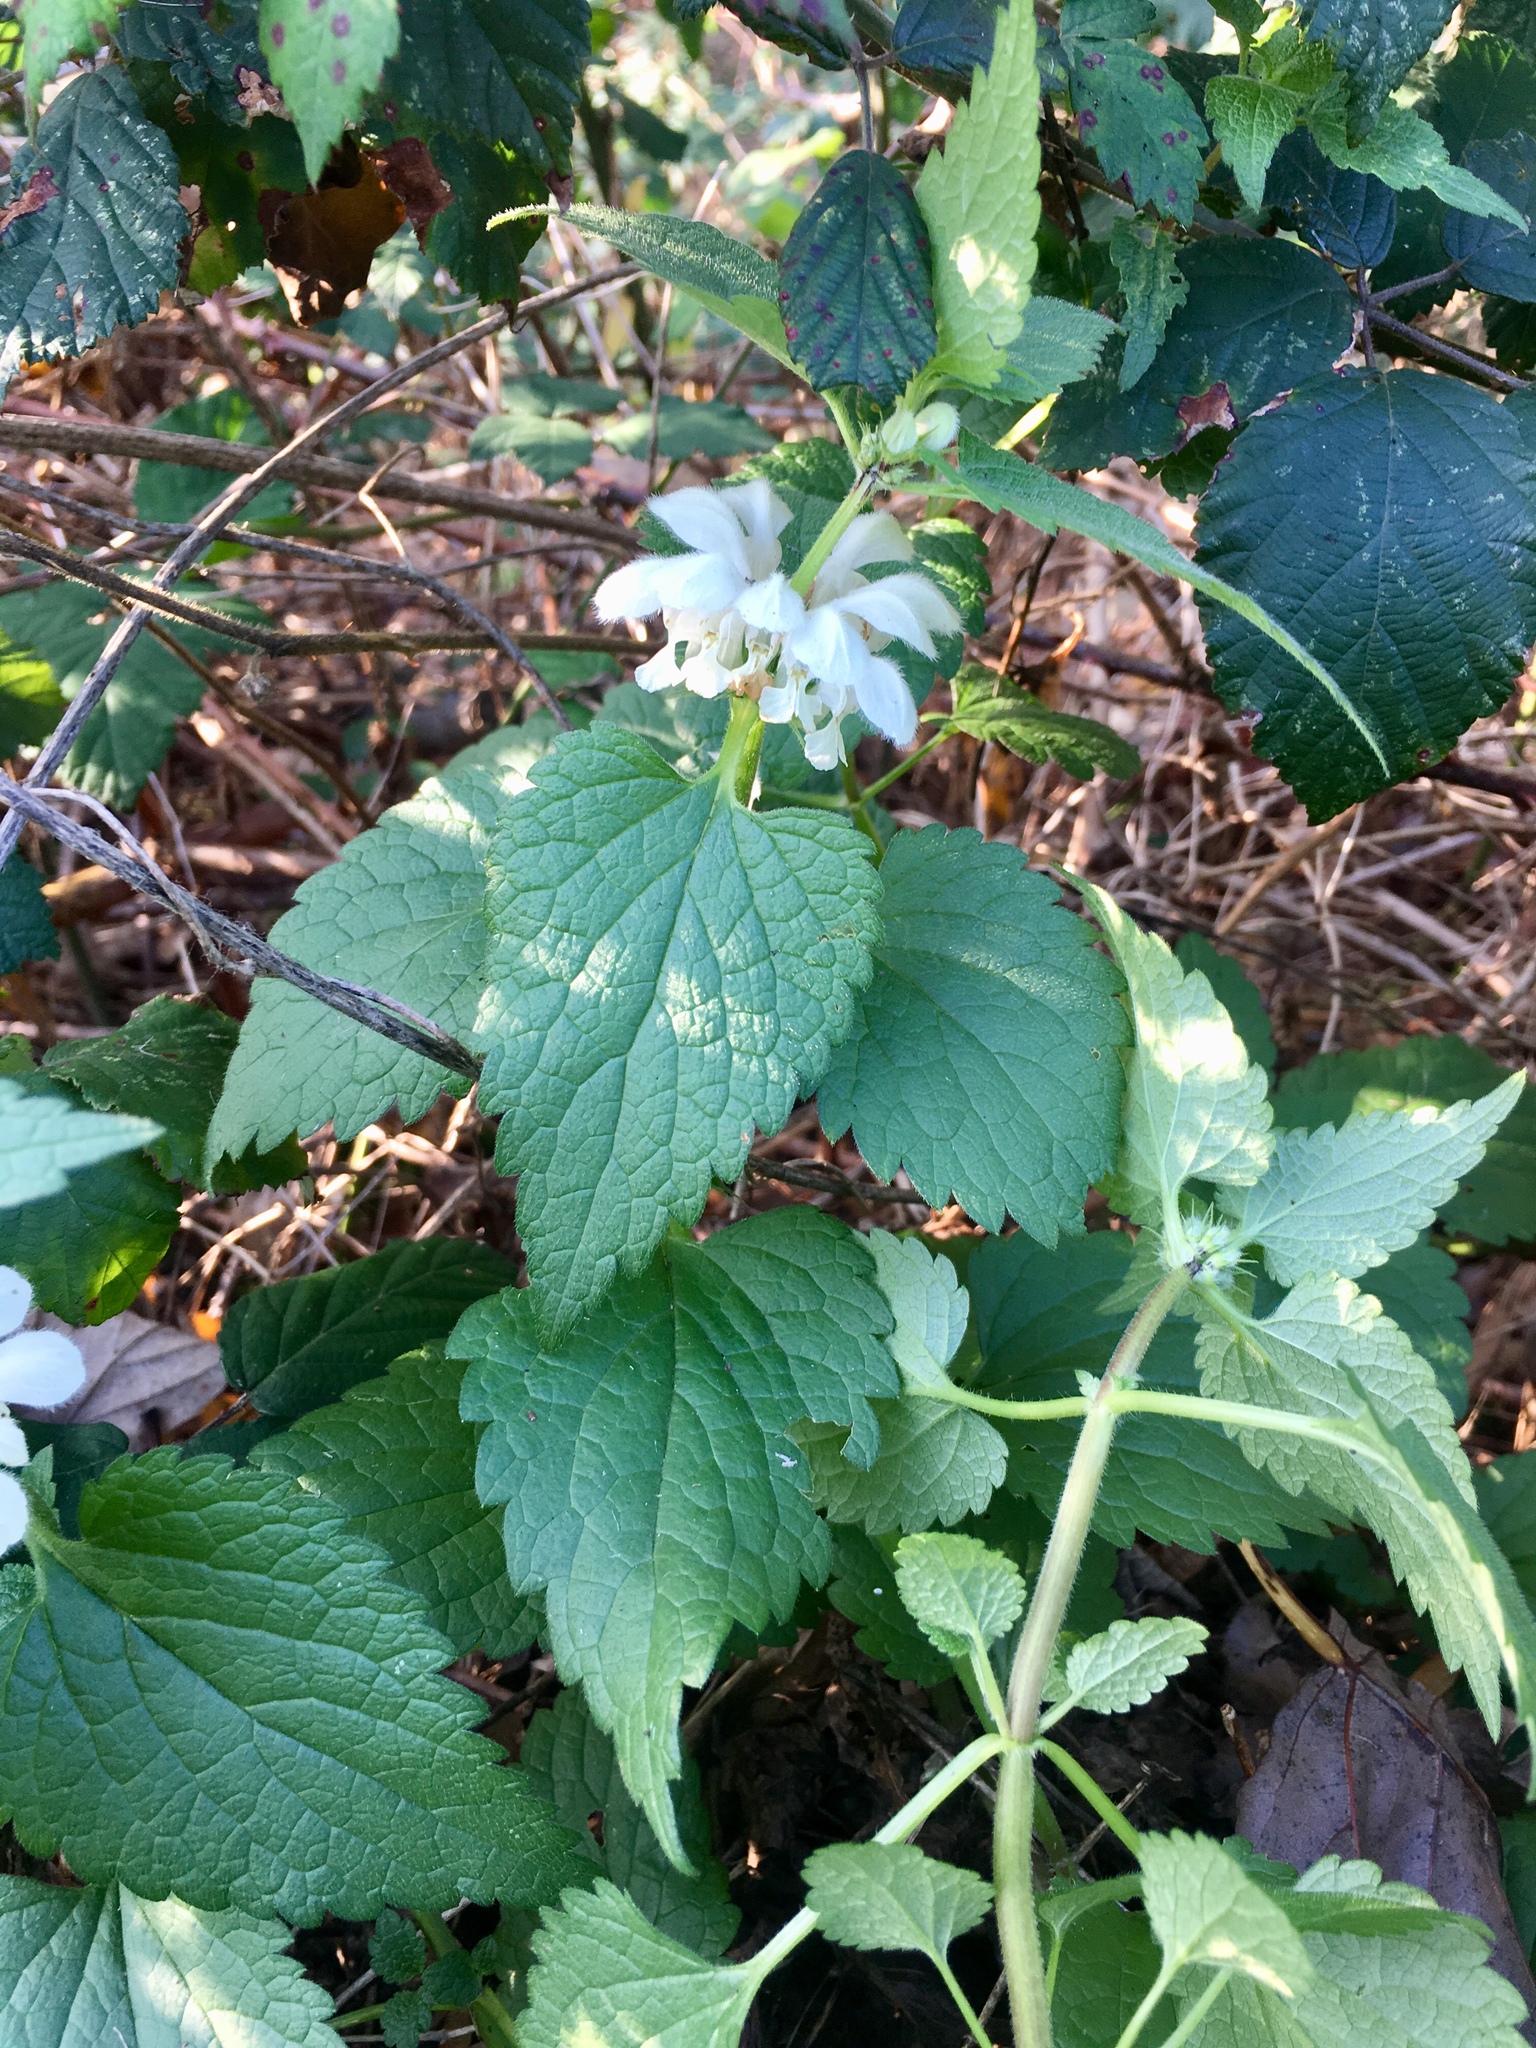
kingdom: Plantae
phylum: Tracheophyta
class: Magnoliopsida
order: Lamiales
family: Lamiaceae
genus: Lamium
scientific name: Lamium album
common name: White dead-nettle
